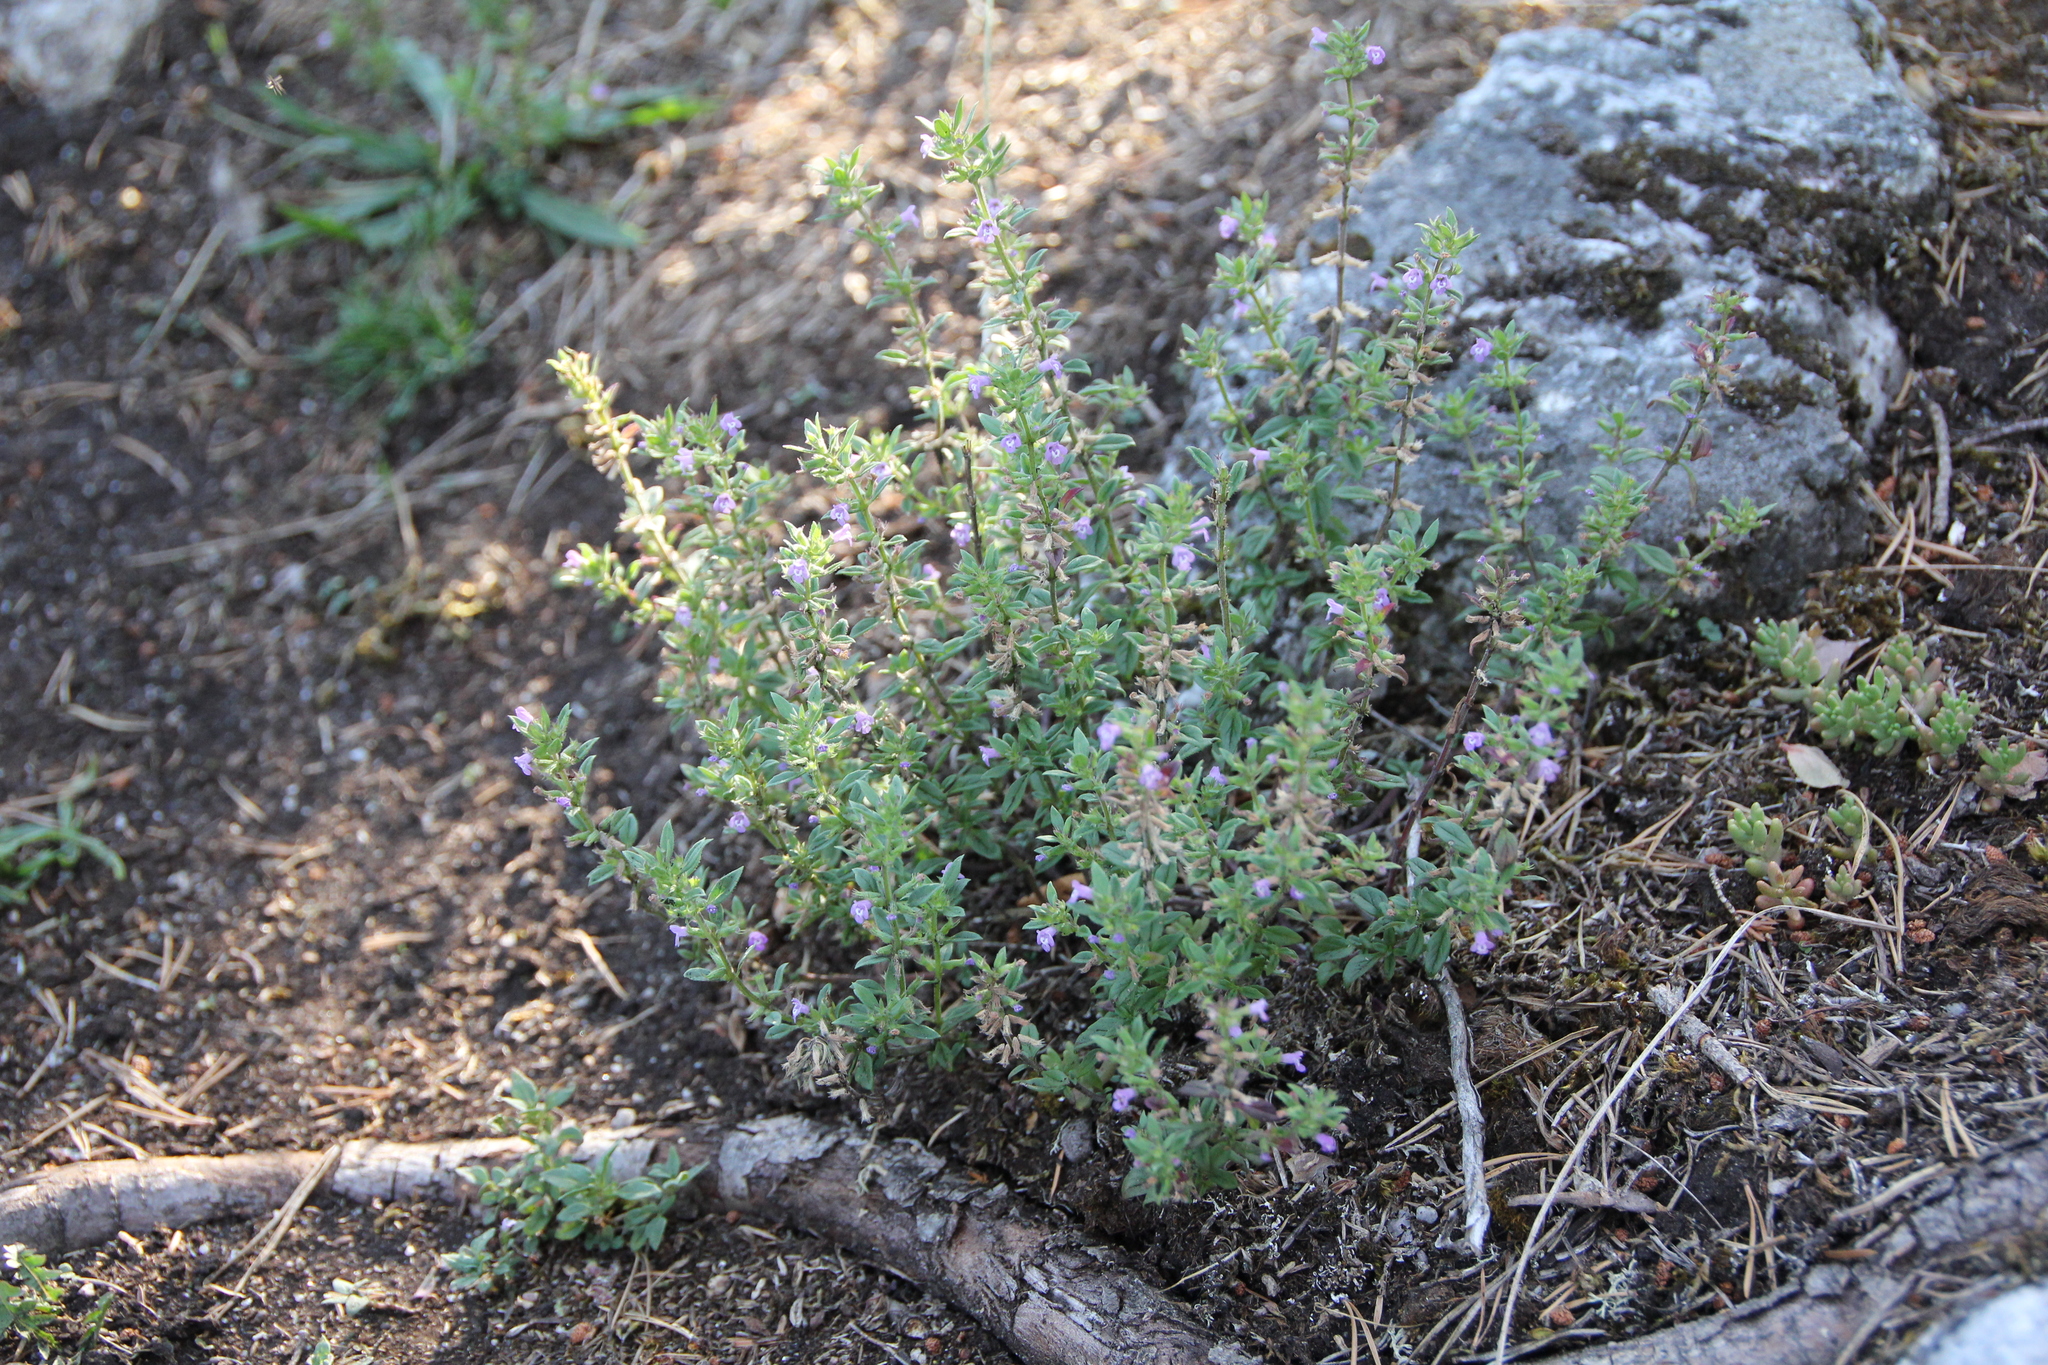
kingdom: Plantae
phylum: Tracheophyta
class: Magnoliopsida
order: Lamiales
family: Lamiaceae
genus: Clinopodium
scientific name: Clinopodium acinos
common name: Basil thyme
